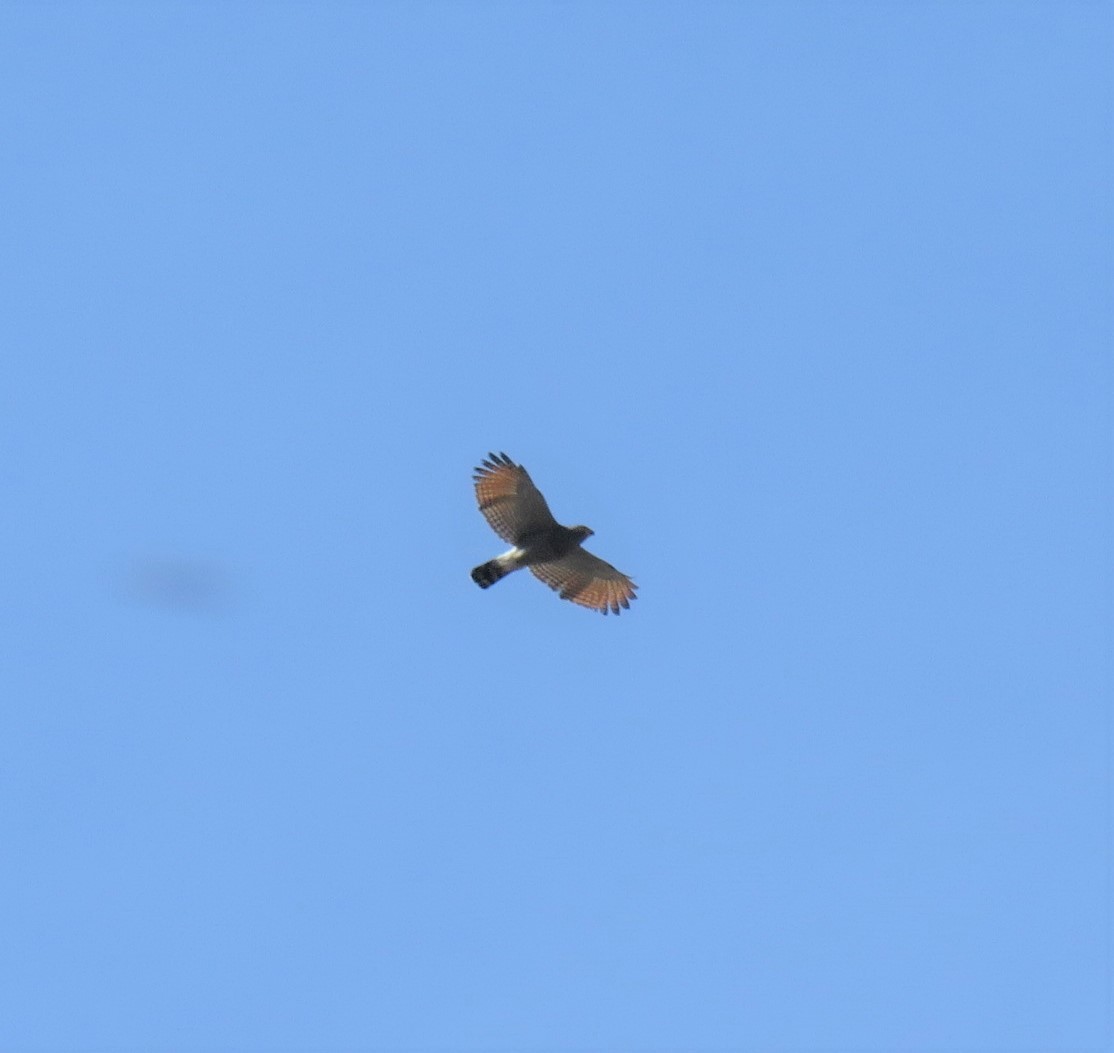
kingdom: Animalia
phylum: Chordata
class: Aves
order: Accipitriformes
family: Accipitridae
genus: Rupornis
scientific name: Rupornis magnirostris
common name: Roadside hawk
